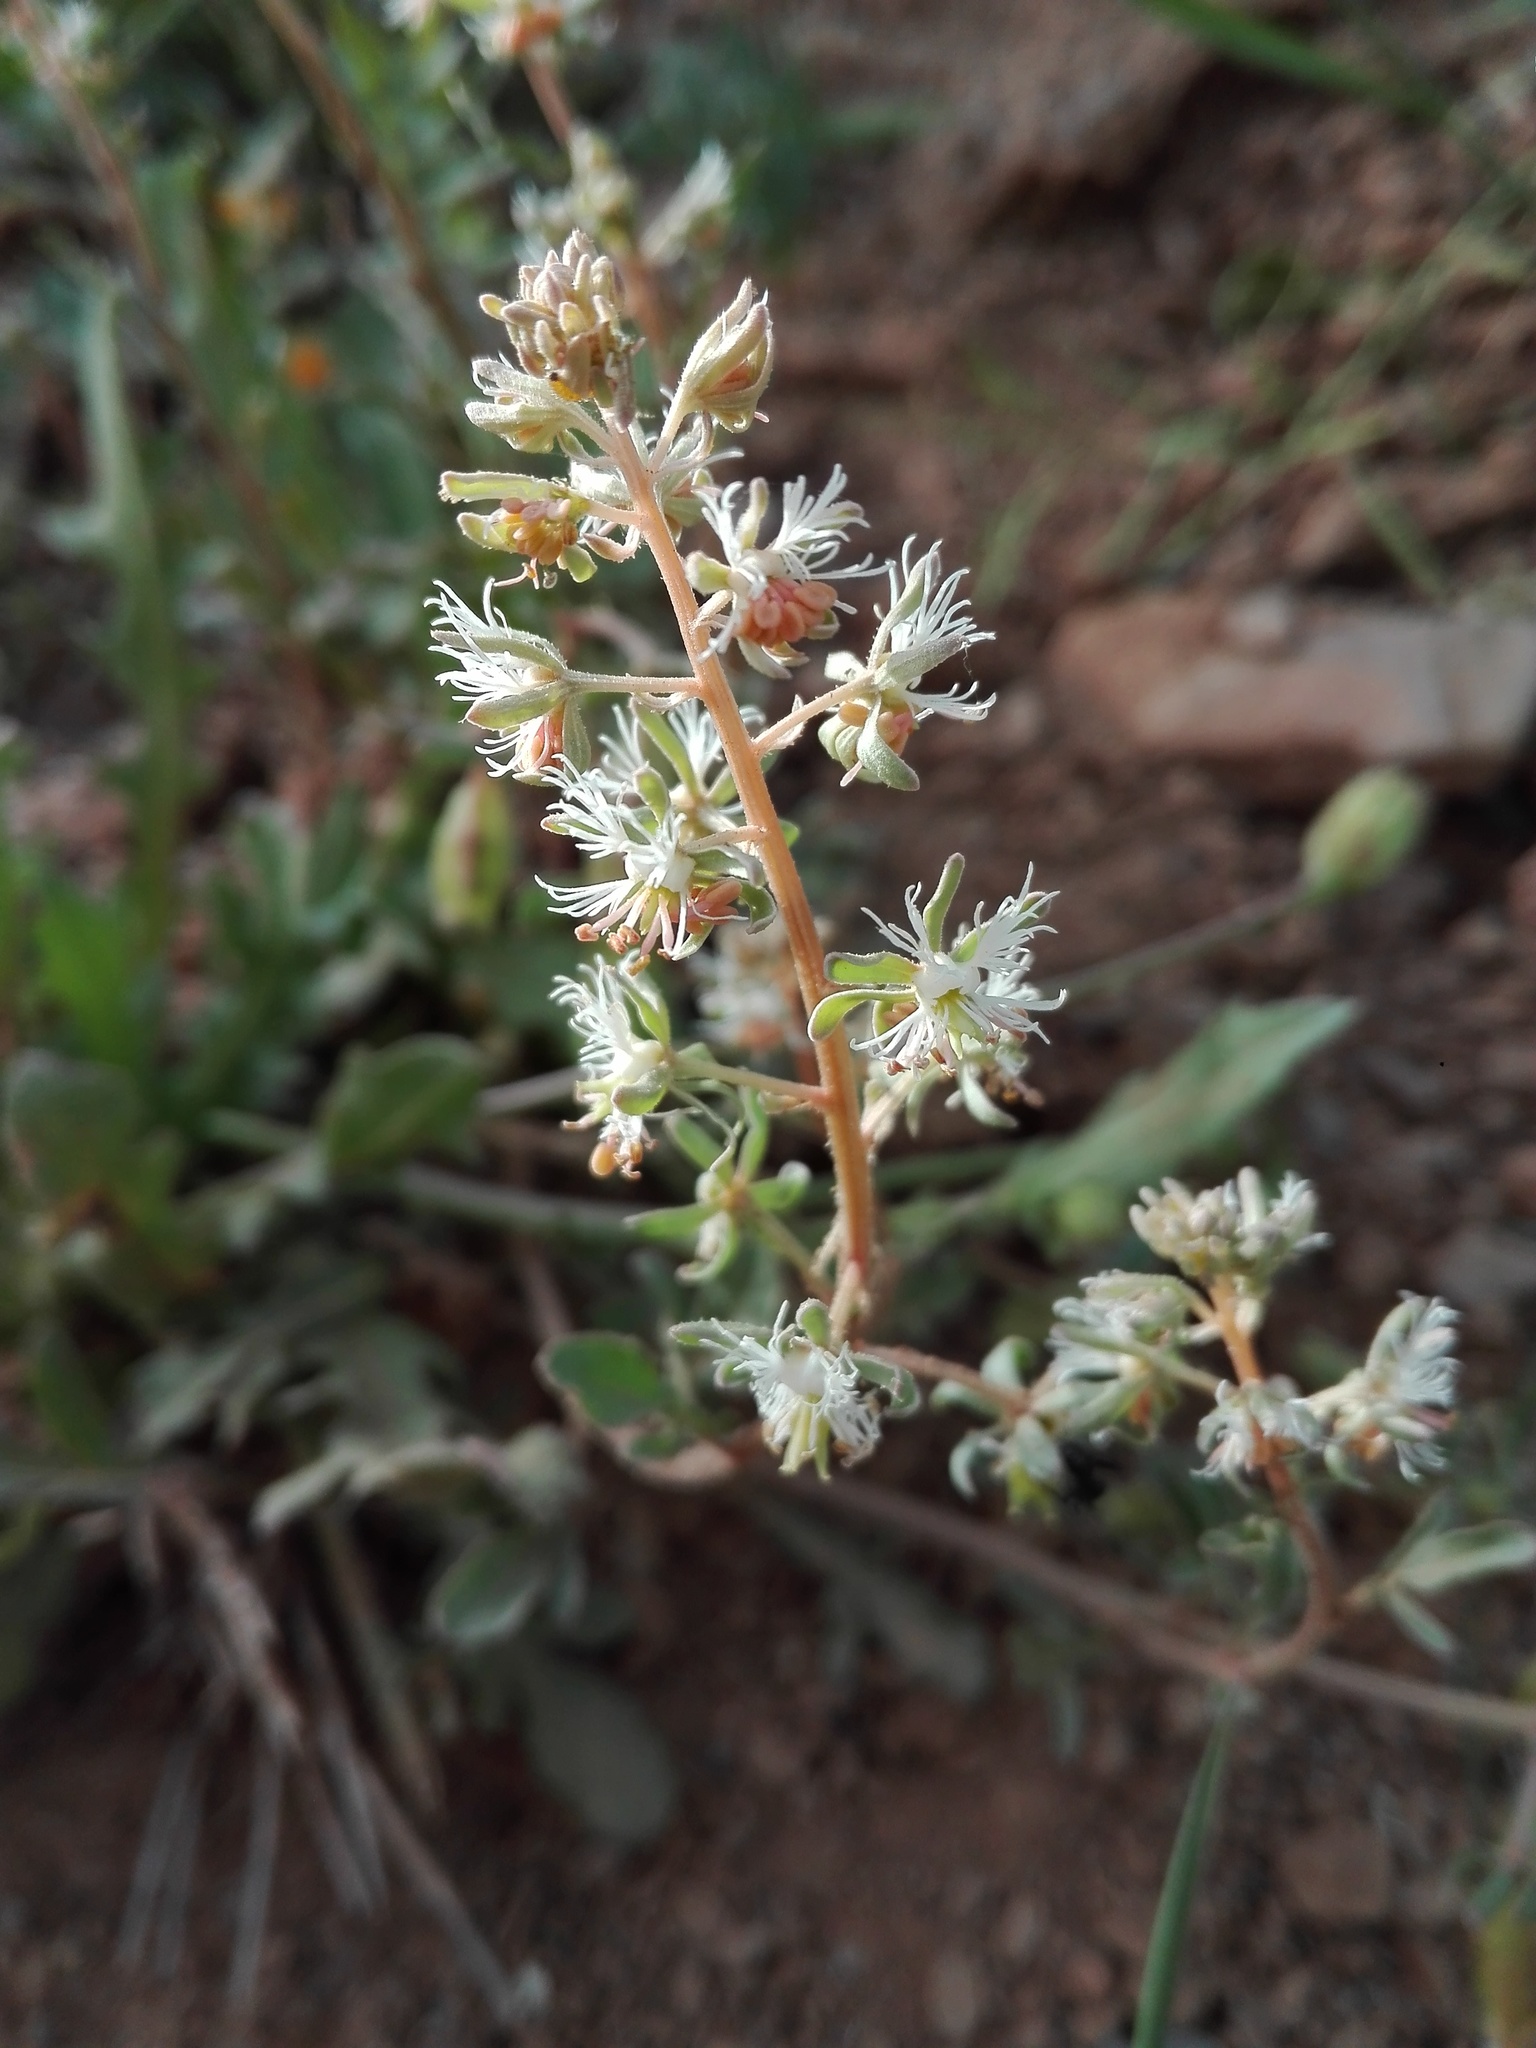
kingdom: Plantae
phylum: Tracheophyta
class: Magnoliopsida
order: Brassicales
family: Resedaceae
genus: Reseda
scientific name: Reseda phyteuma
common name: Corn mignonette
